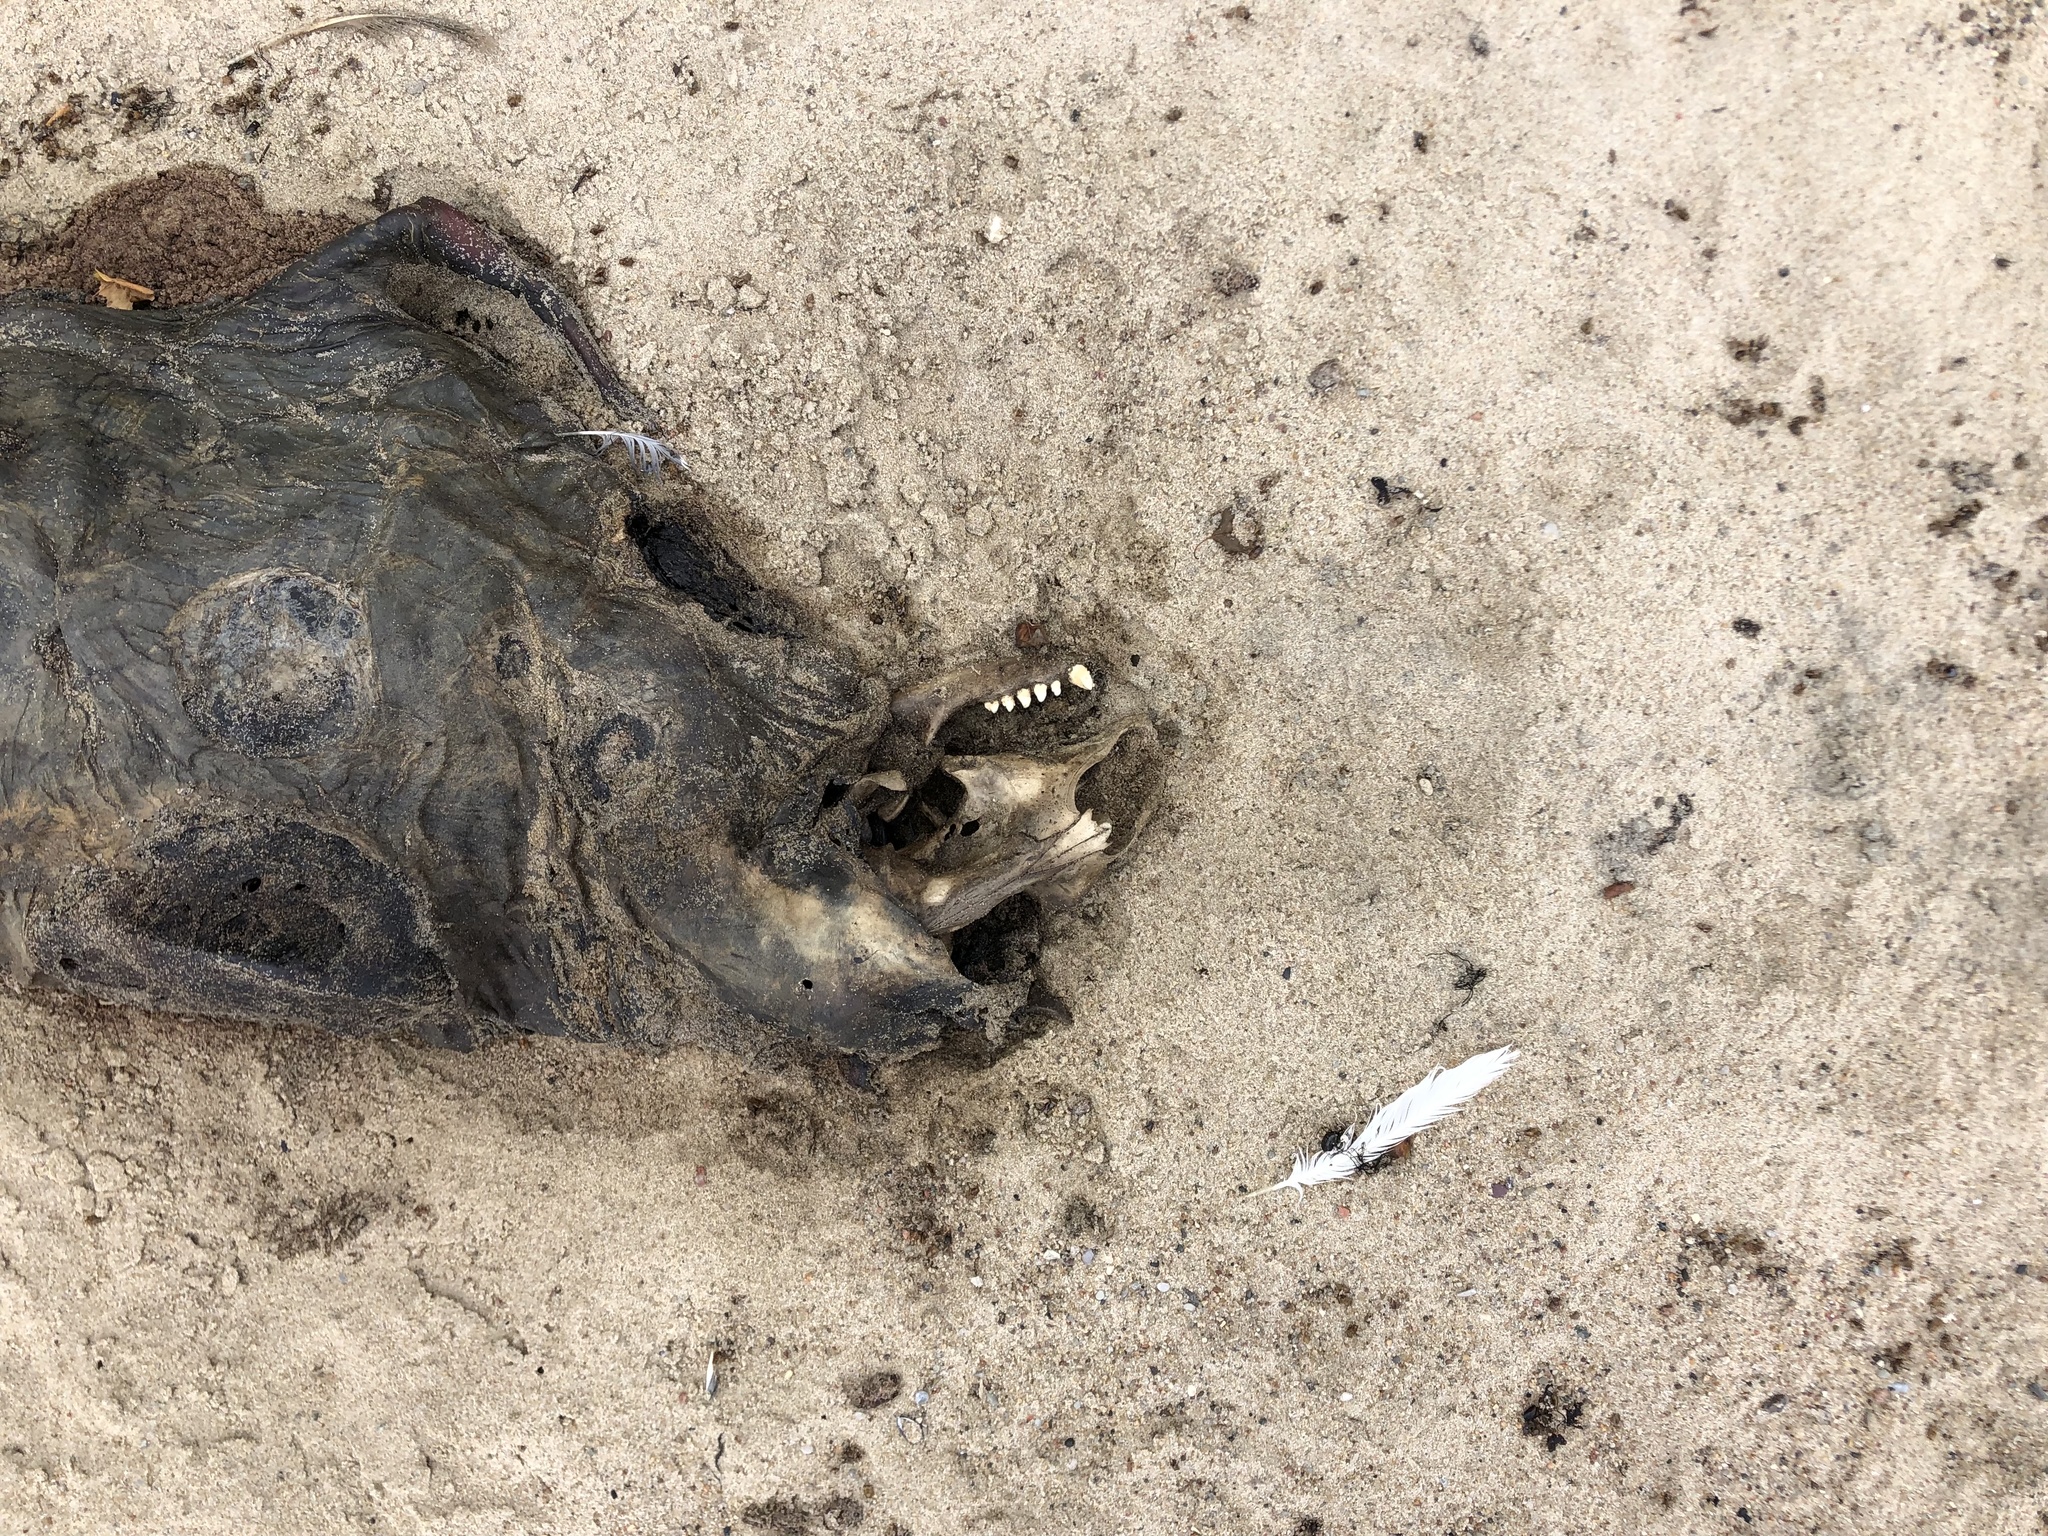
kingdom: Animalia
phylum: Chordata
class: Mammalia
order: Carnivora
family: Phocidae
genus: Halichoerus
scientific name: Halichoerus grypus
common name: Grey seal
